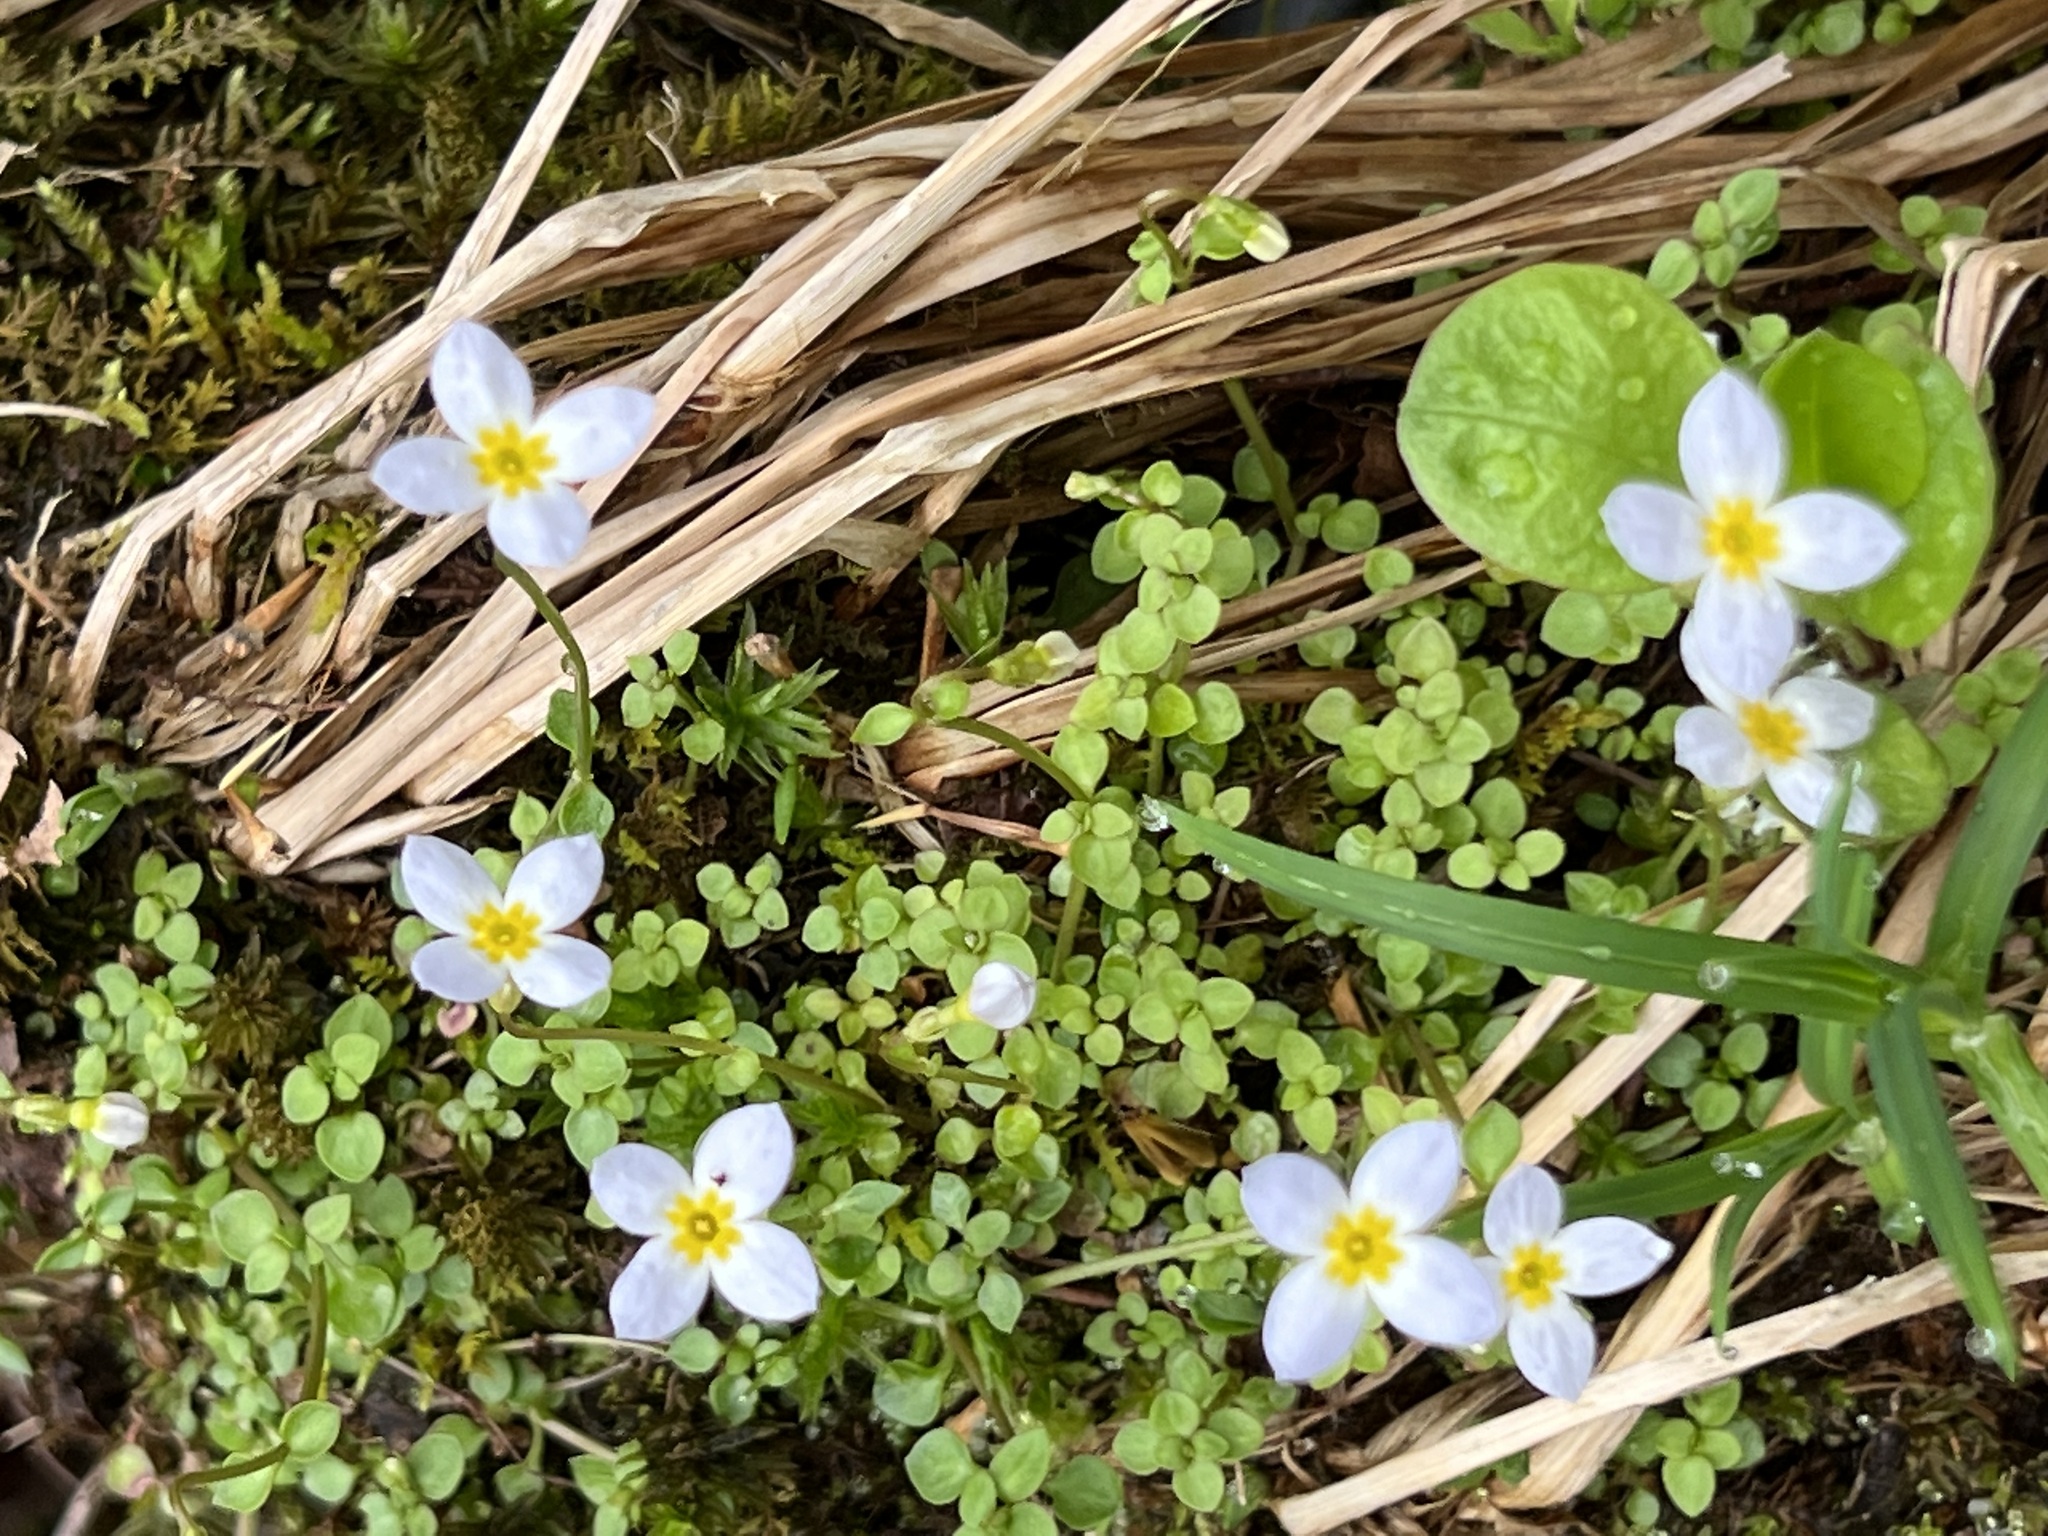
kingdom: Plantae
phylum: Tracheophyta
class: Magnoliopsida
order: Gentianales
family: Rubiaceae
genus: Houstonia
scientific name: Houstonia serpyllifolia
